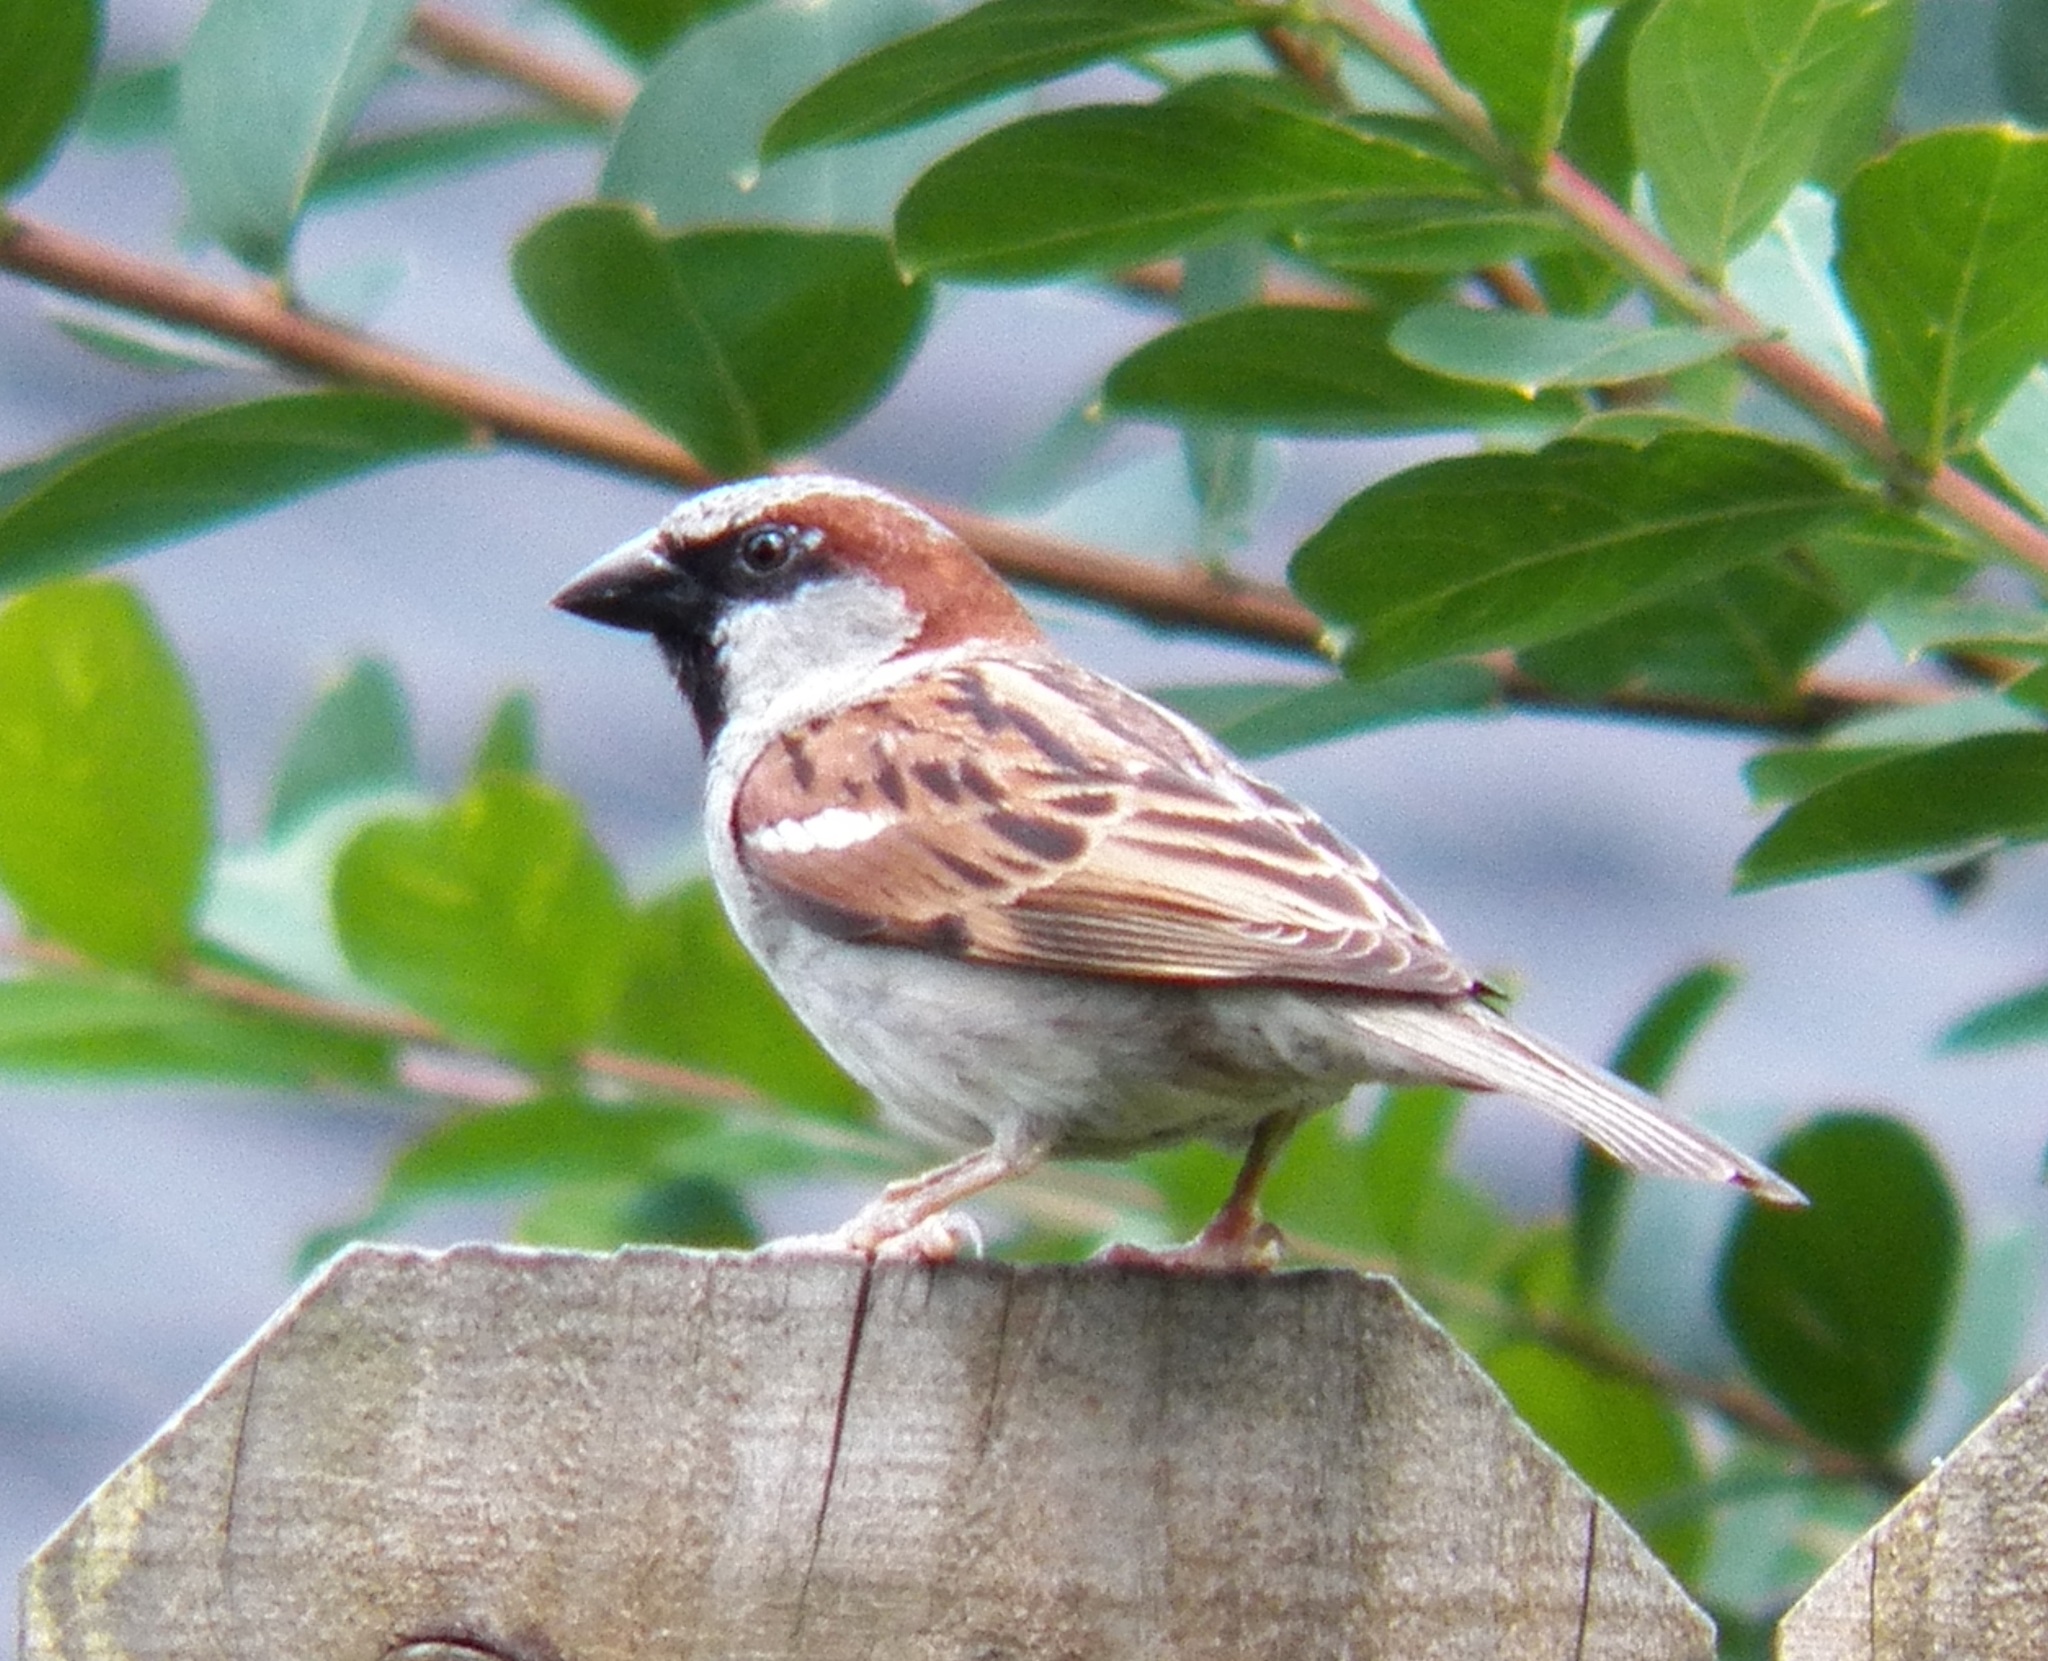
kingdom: Animalia
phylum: Chordata
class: Aves
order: Passeriformes
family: Passeridae
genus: Passer
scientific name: Passer domesticus
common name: House sparrow
